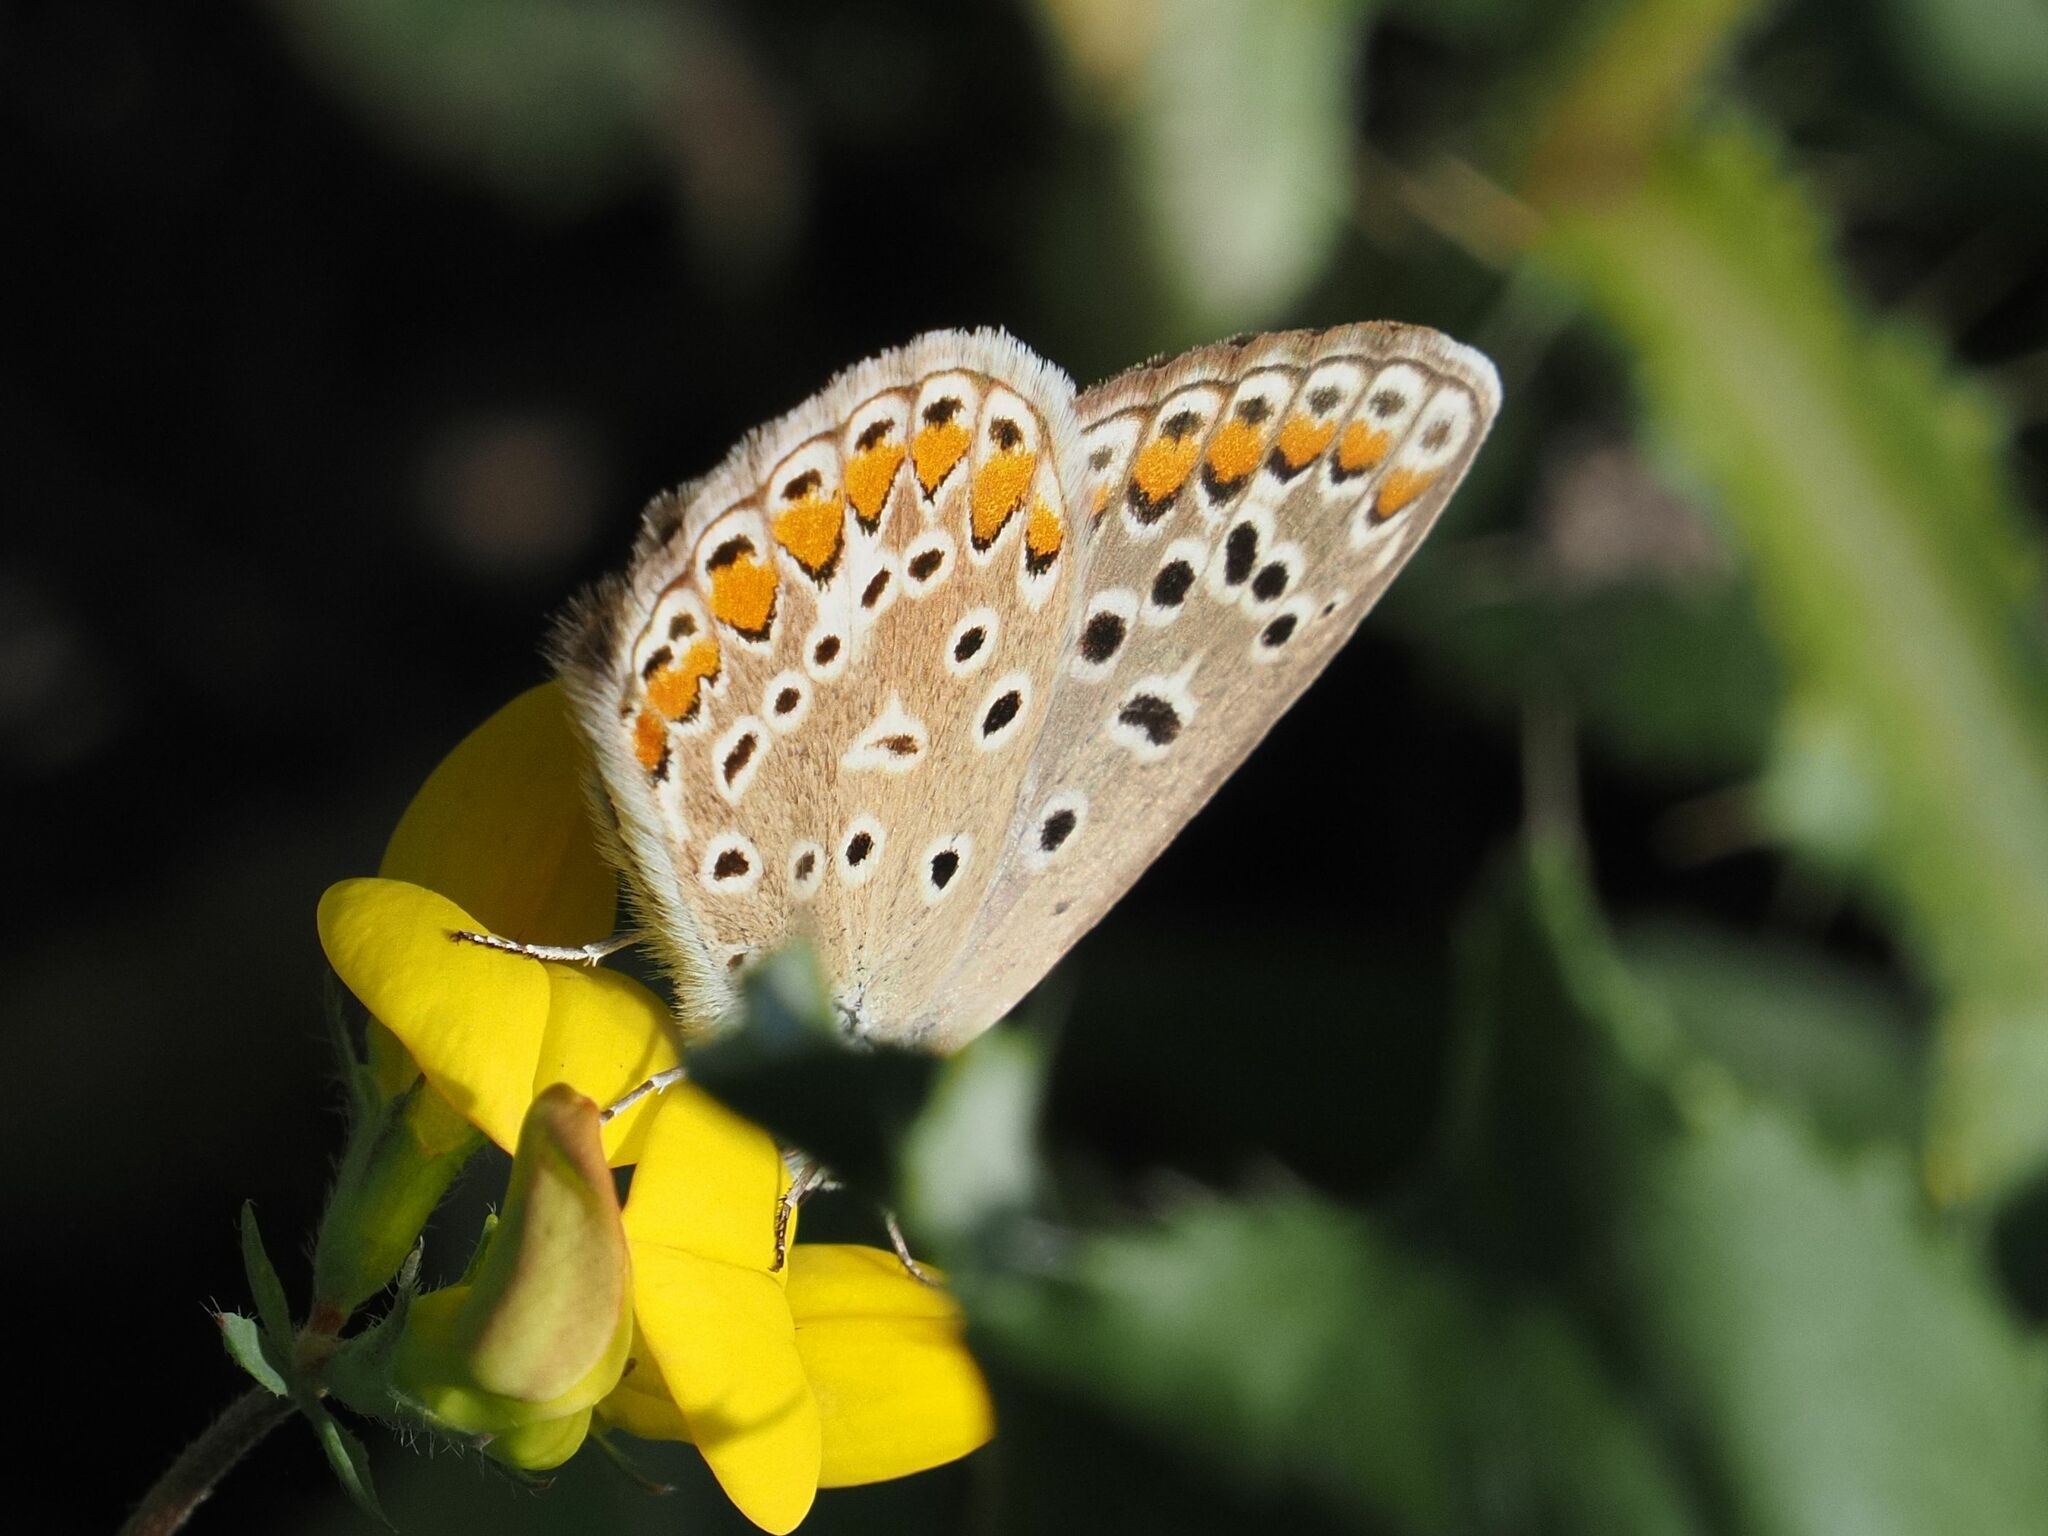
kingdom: Animalia
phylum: Arthropoda
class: Insecta
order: Lepidoptera
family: Lycaenidae
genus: Polyommatus
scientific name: Polyommatus icarus
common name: Common blue
